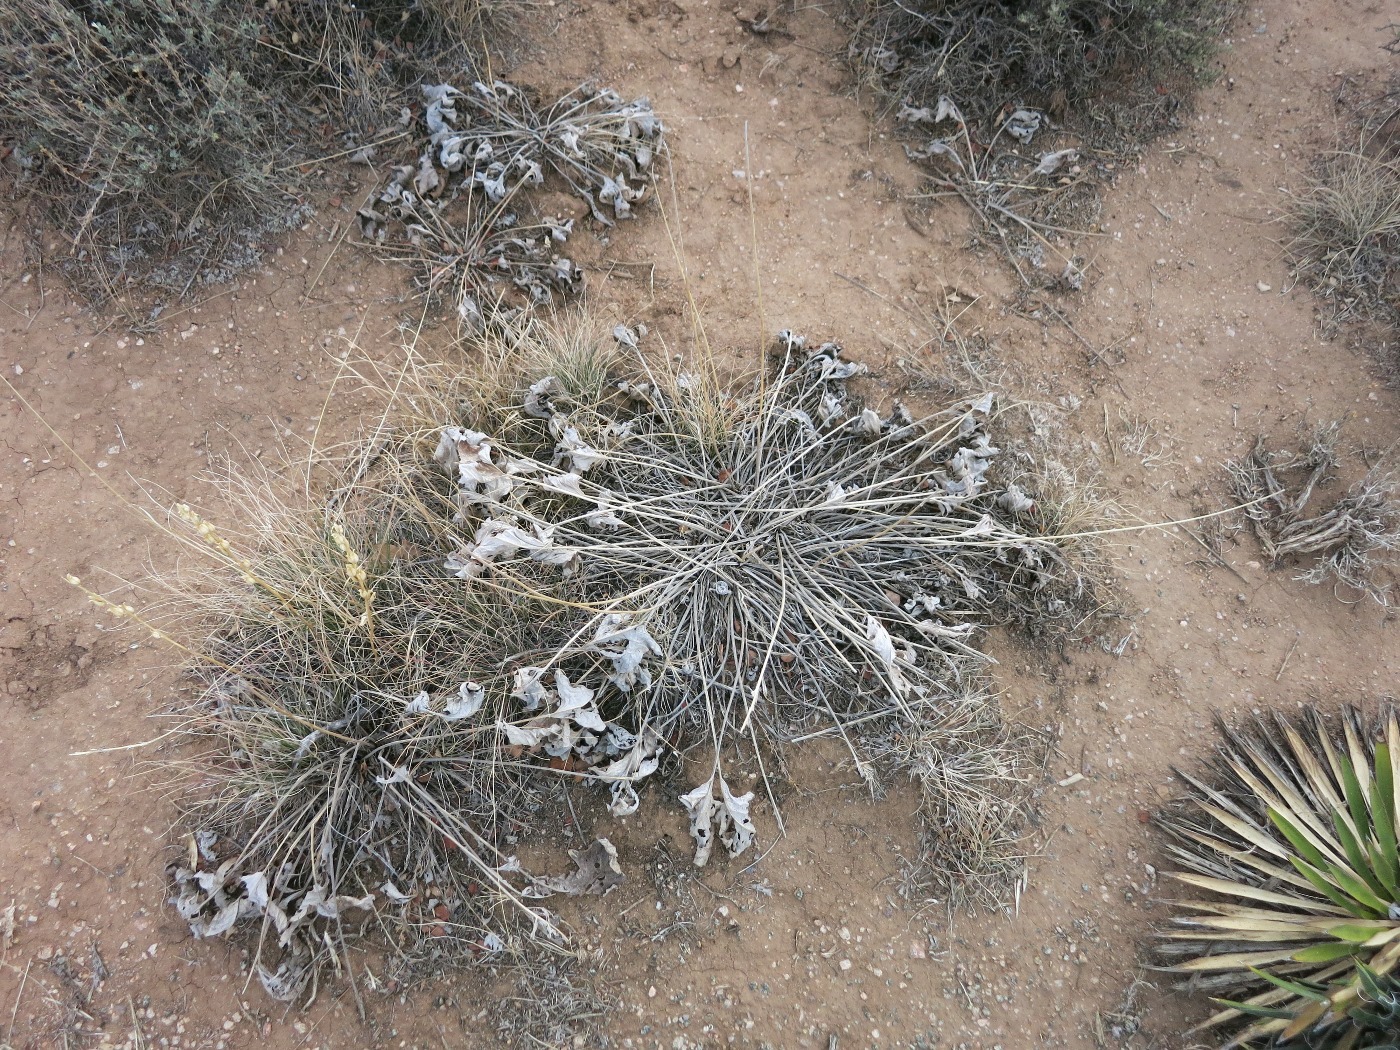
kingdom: Plantae
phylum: Tracheophyta
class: Magnoliopsida
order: Asterales
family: Asteraceae
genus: Wyethia
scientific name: Wyethia sagittata
